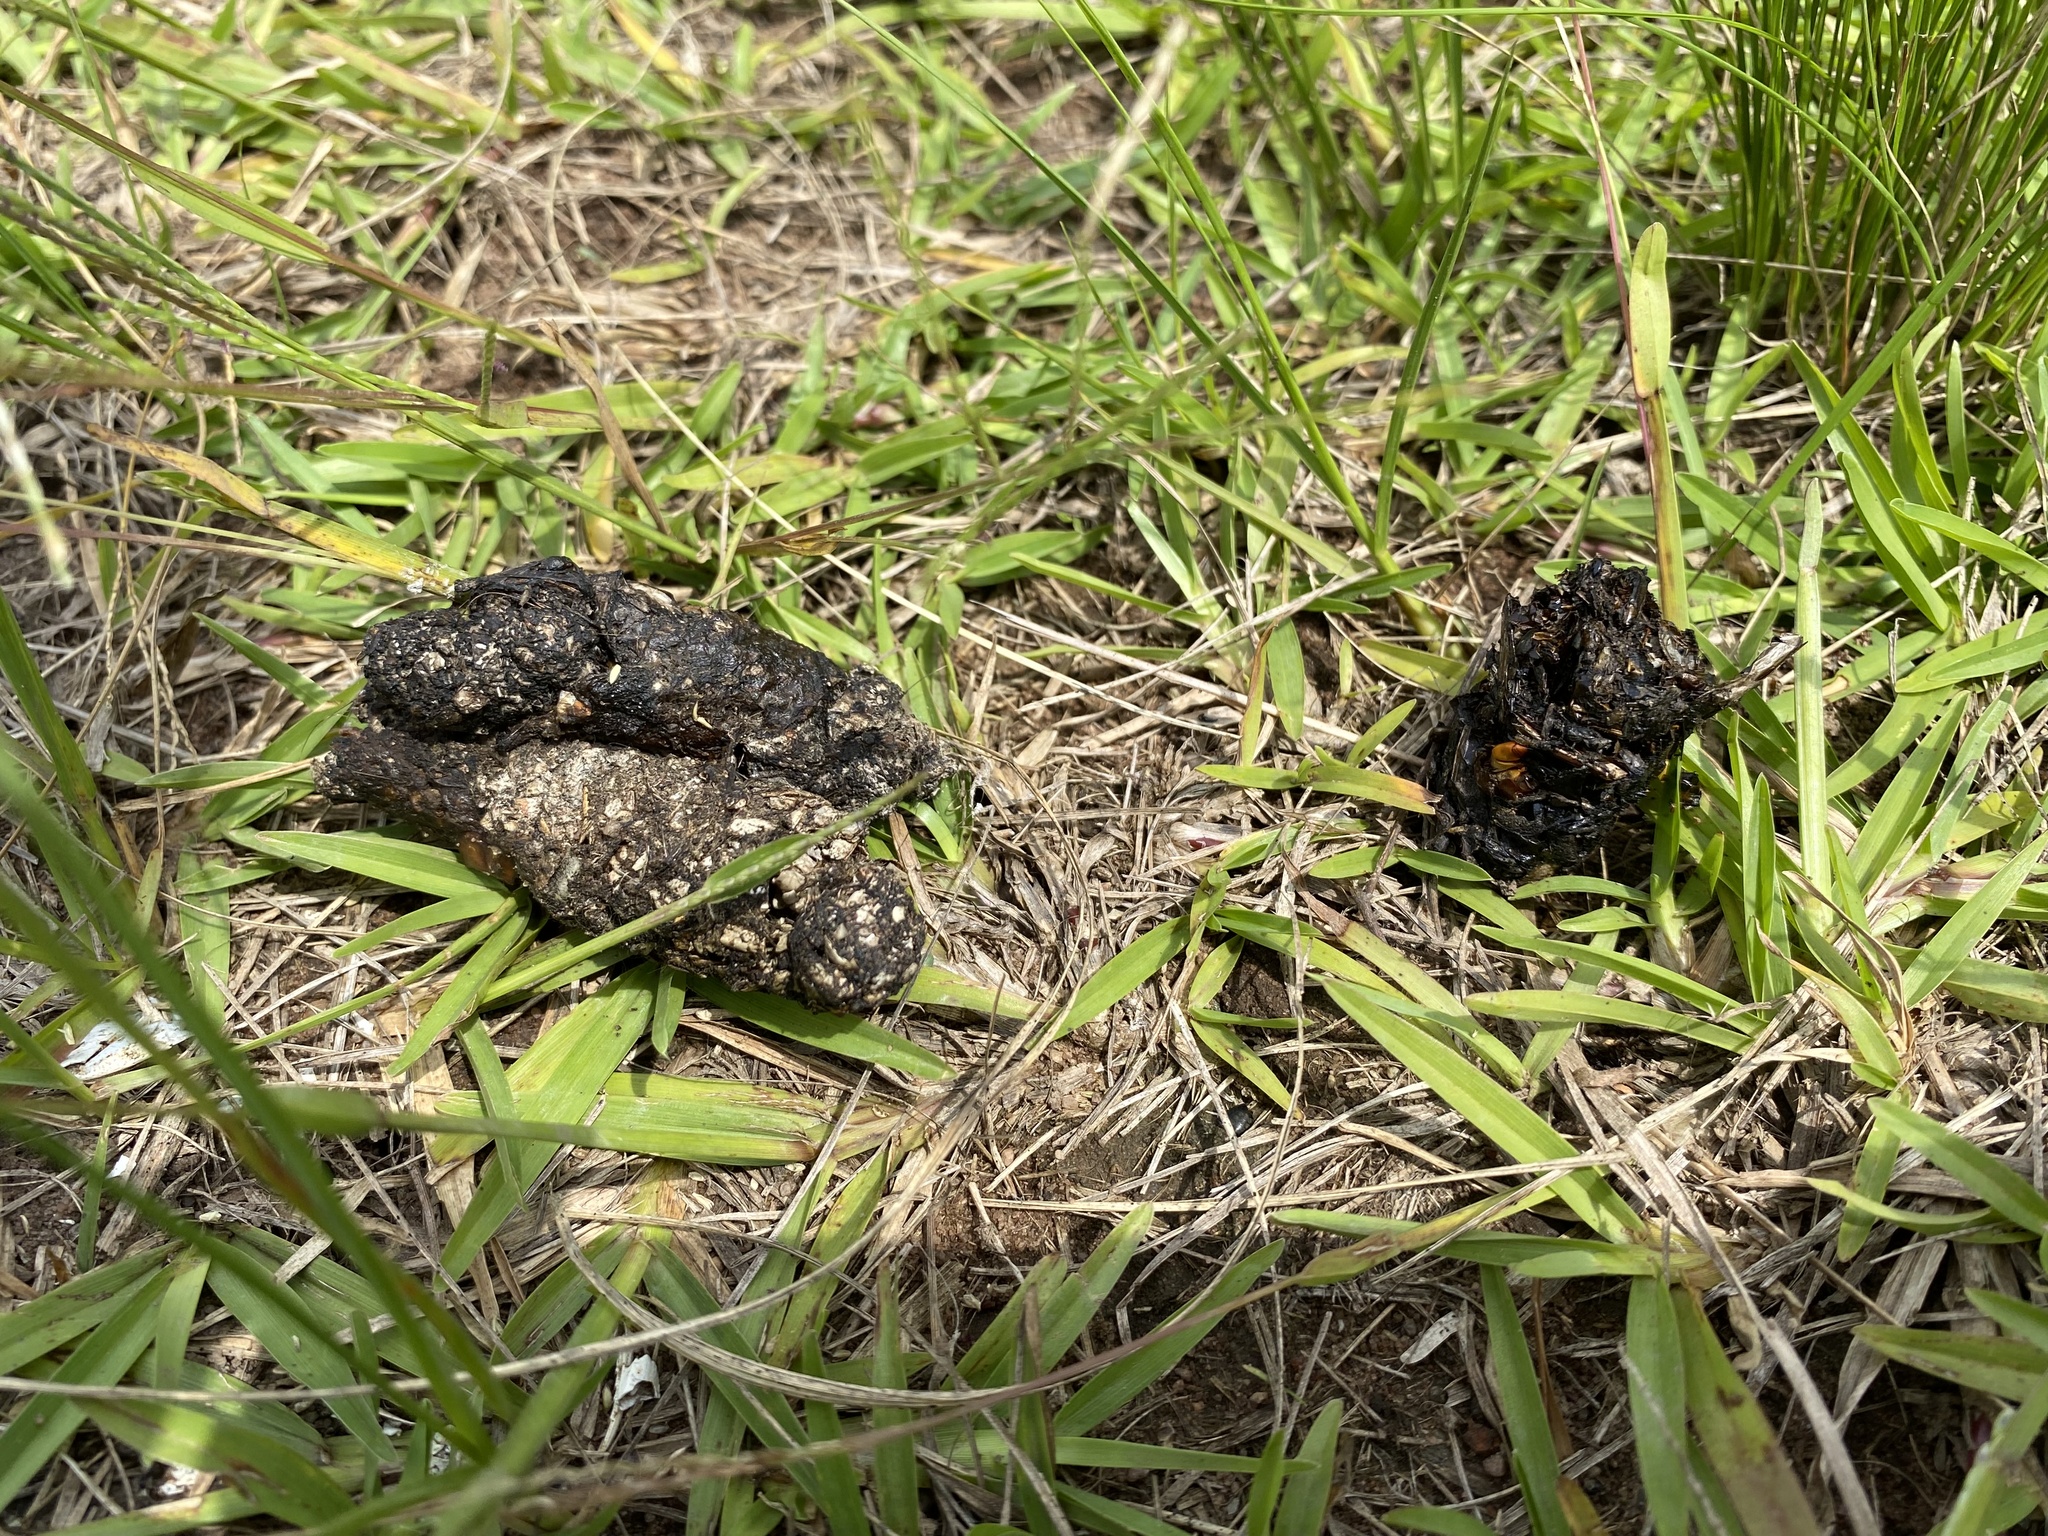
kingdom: Animalia
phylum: Chordata
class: Mammalia
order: Carnivora
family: Herpestidae
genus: Atilax
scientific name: Atilax paludinosus
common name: Marsh mongoose
